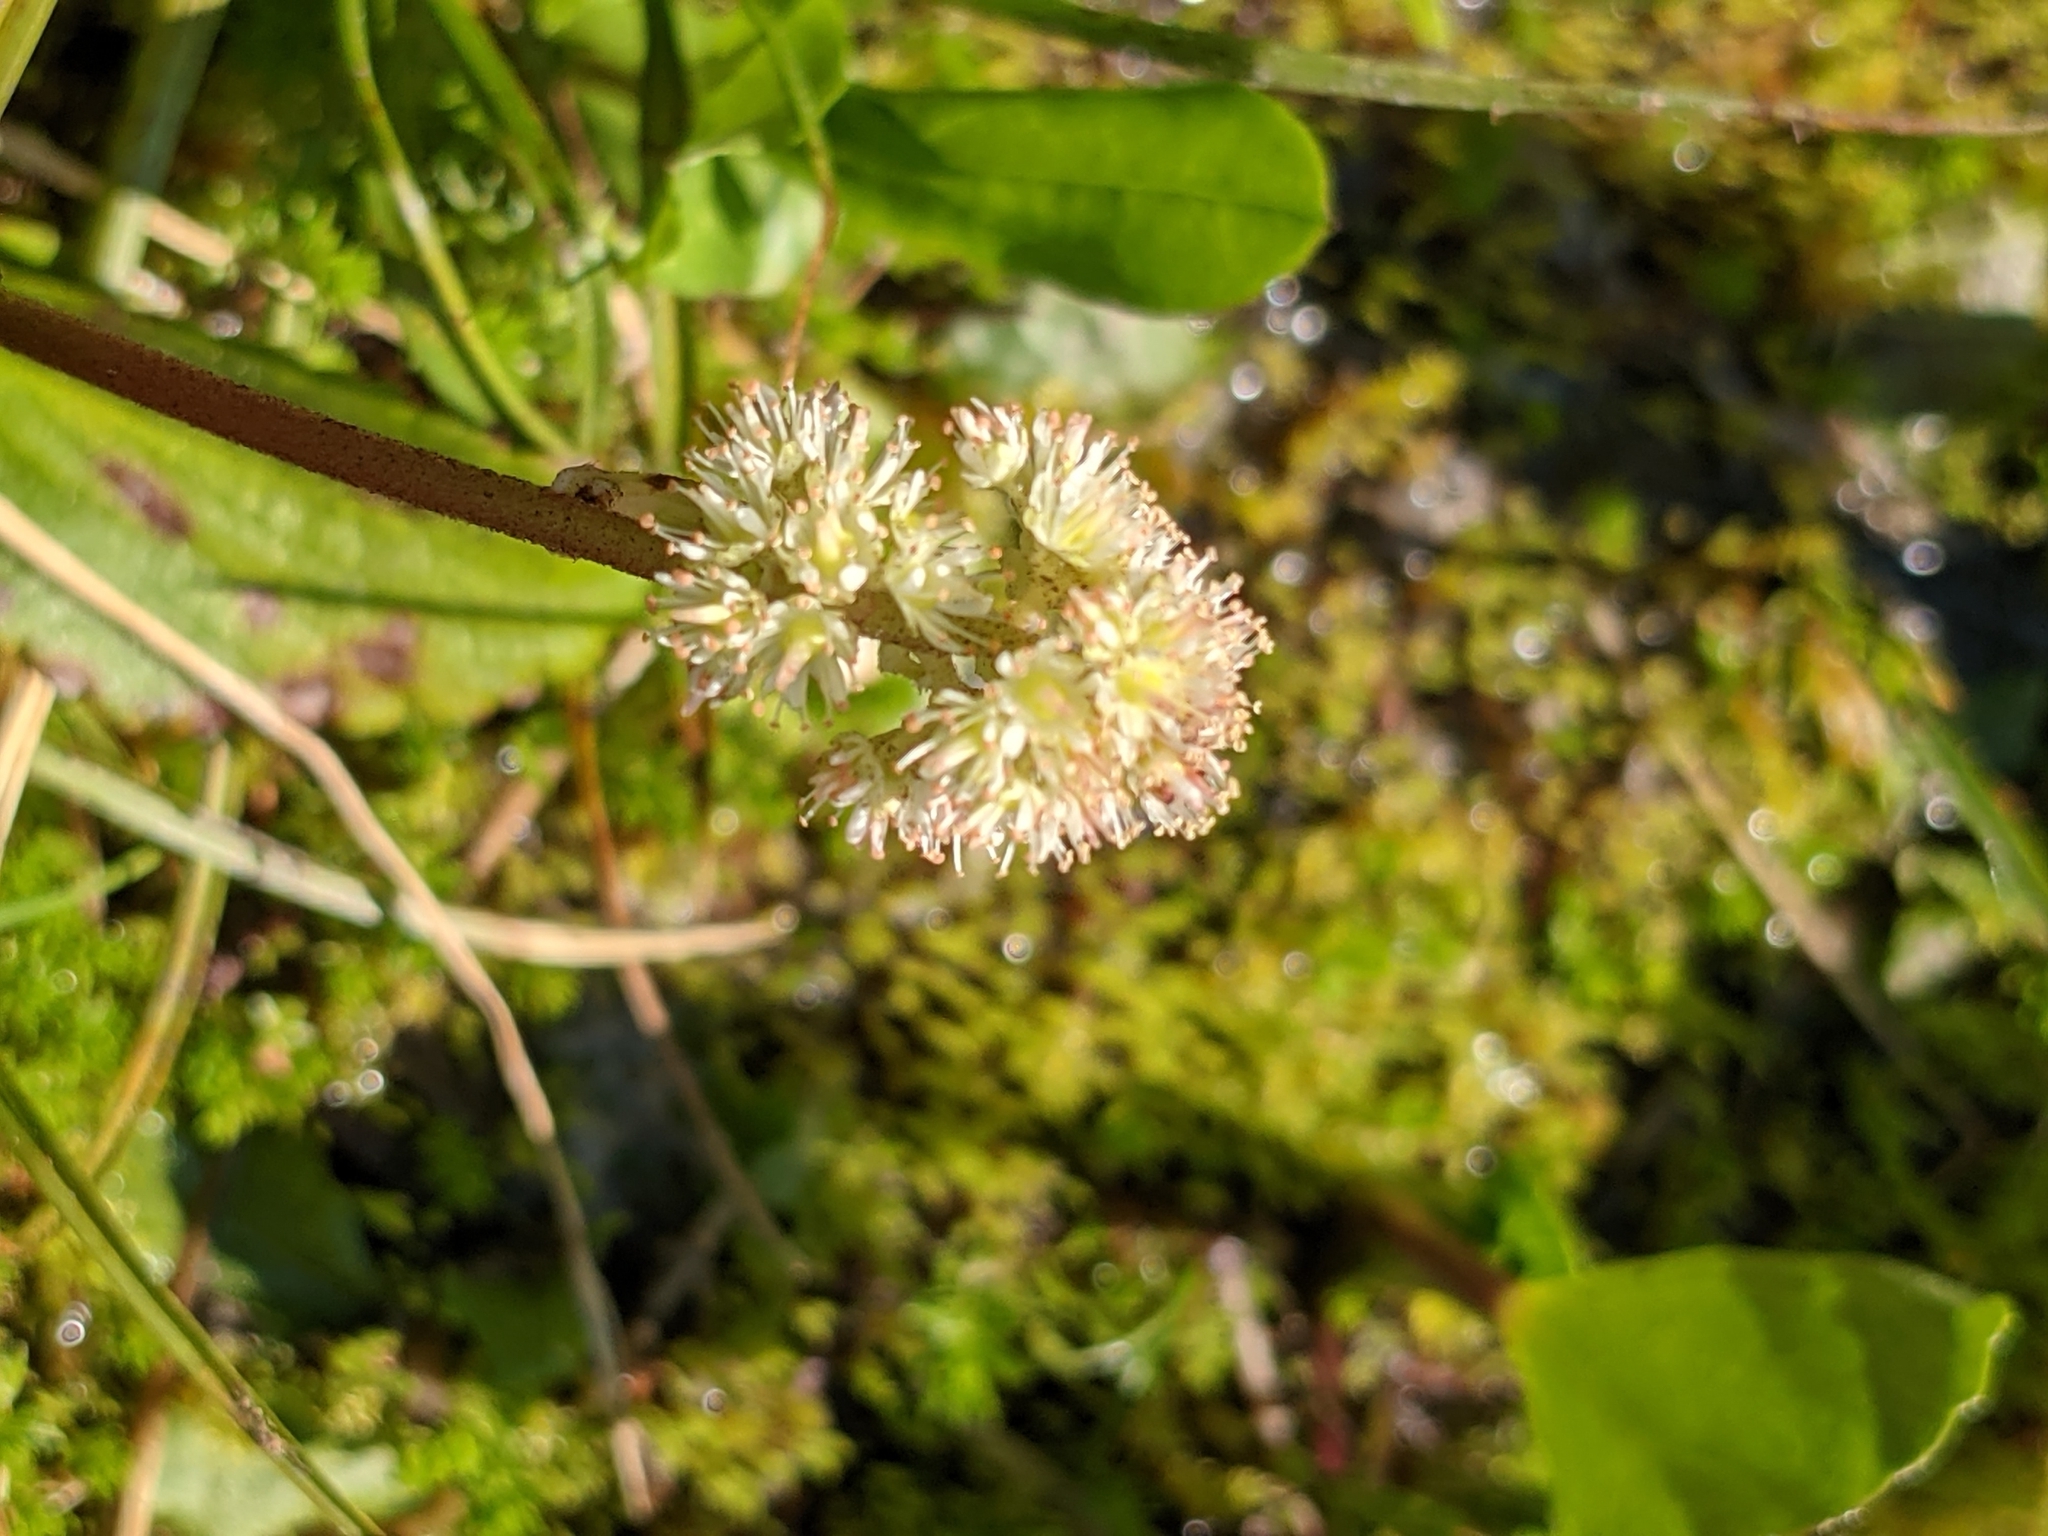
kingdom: Plantae
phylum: Tracheophyta
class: Magnoliopsida
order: Saxifragales
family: Saxifragaceae
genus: Leptarrhena
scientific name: Leptarrhena pyrolifolia
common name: Leatherleaf-saxifrage
